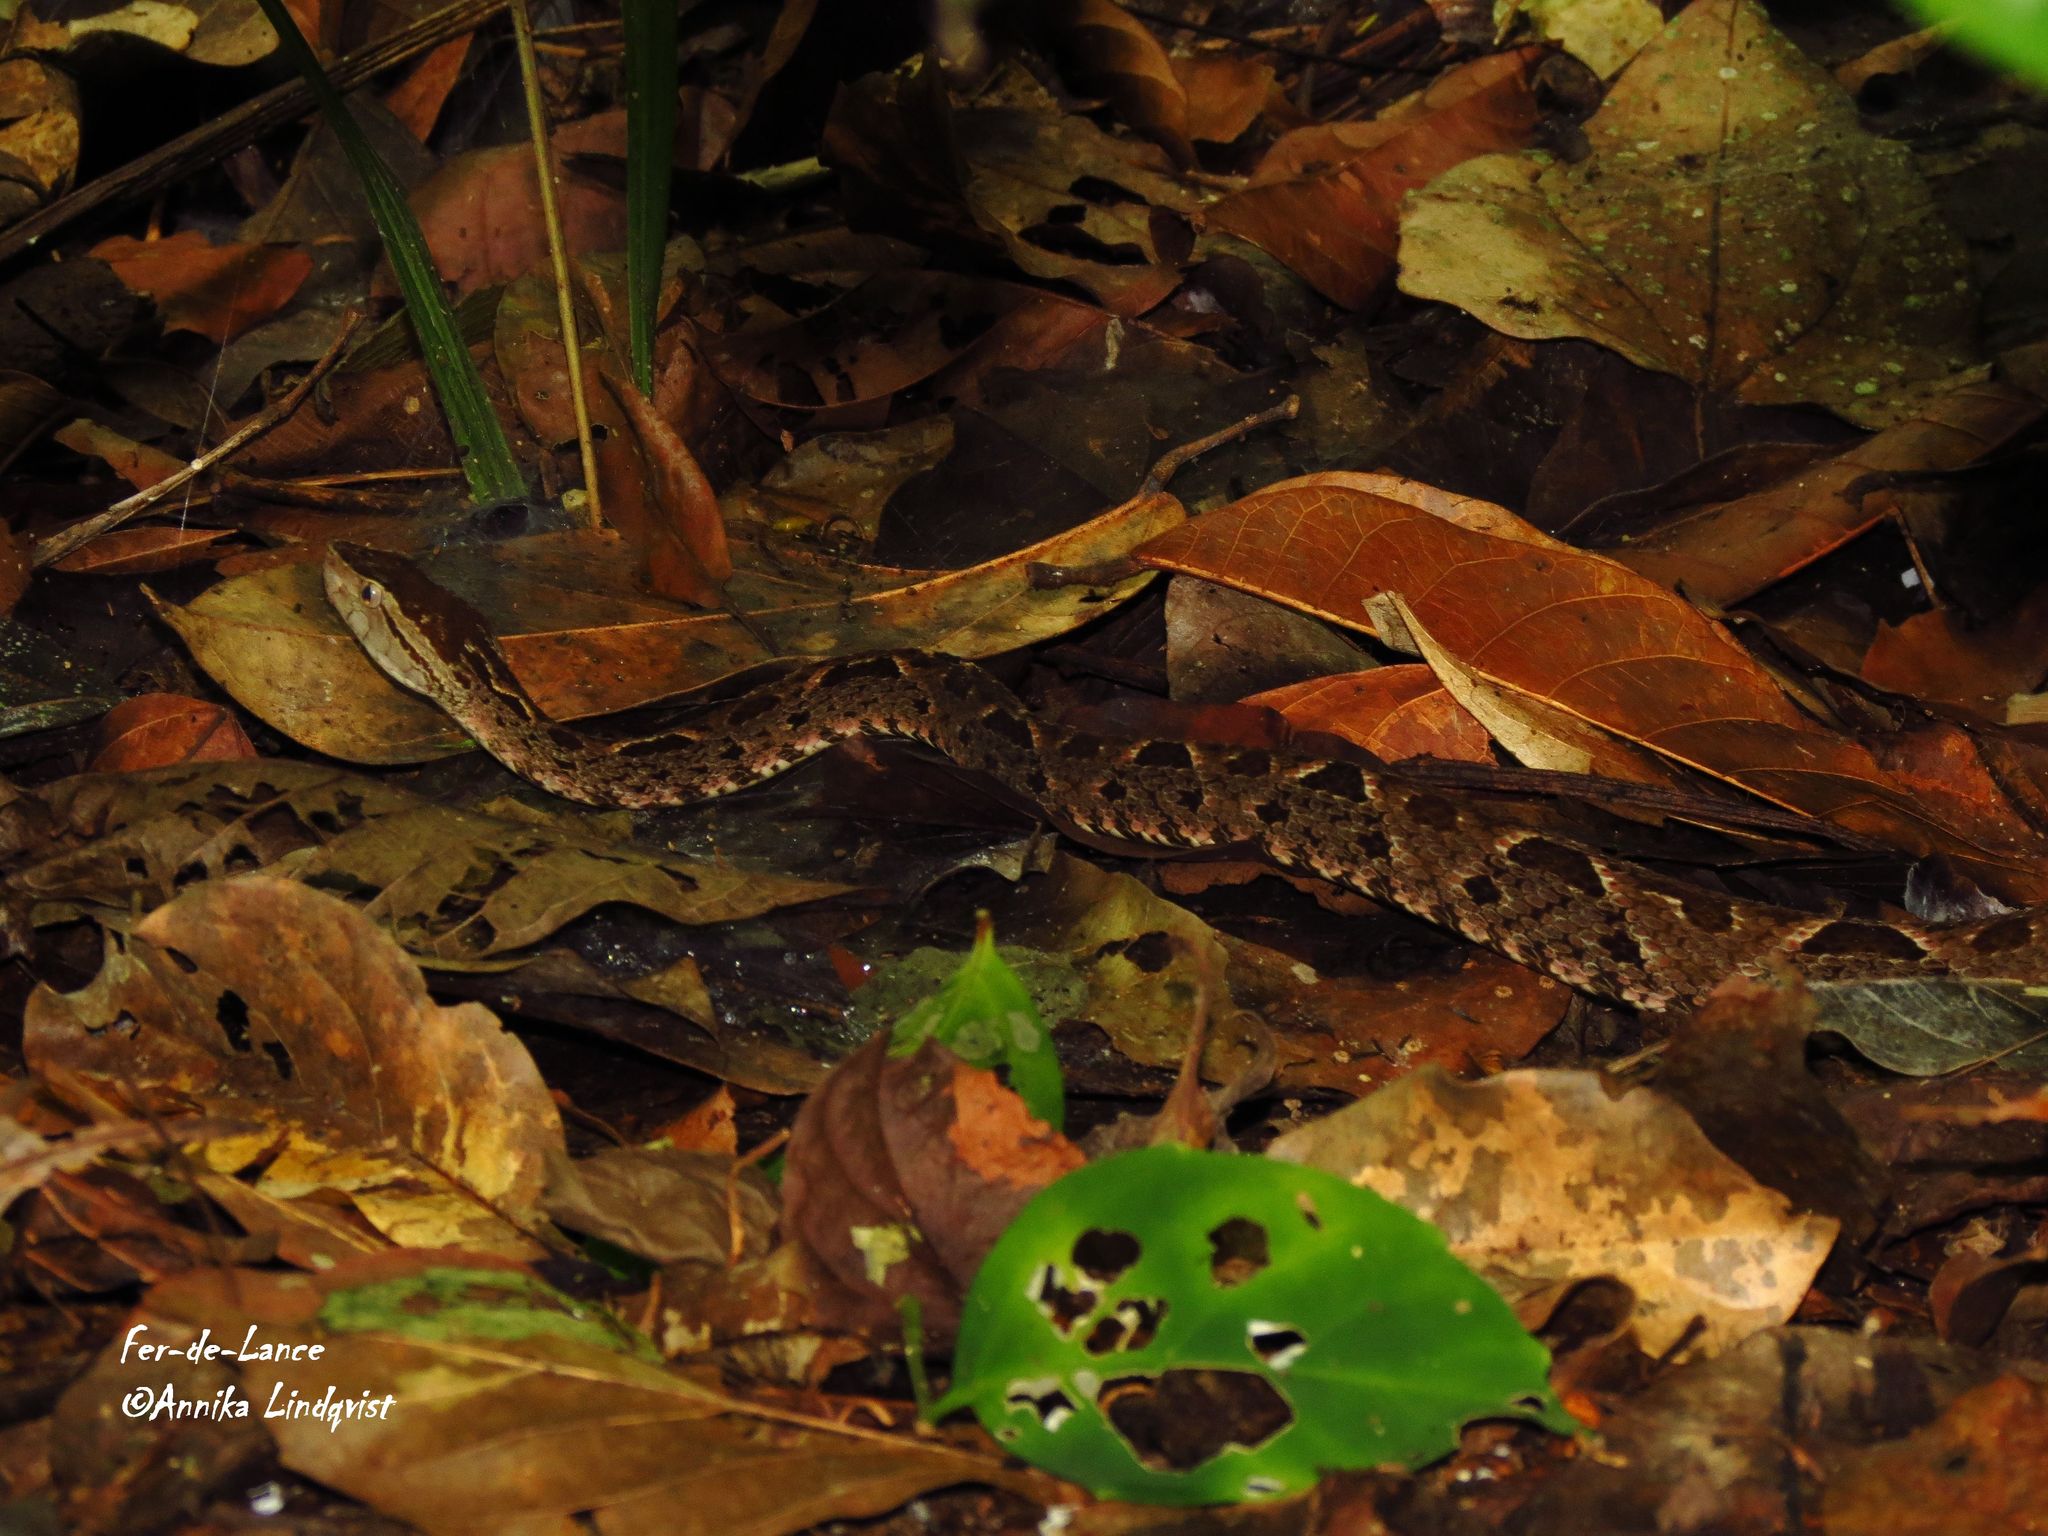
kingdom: Animalia
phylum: Chordata
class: Squamata
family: Viperidae
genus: Bothrops
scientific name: Bothrops asper
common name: Terciopelo
